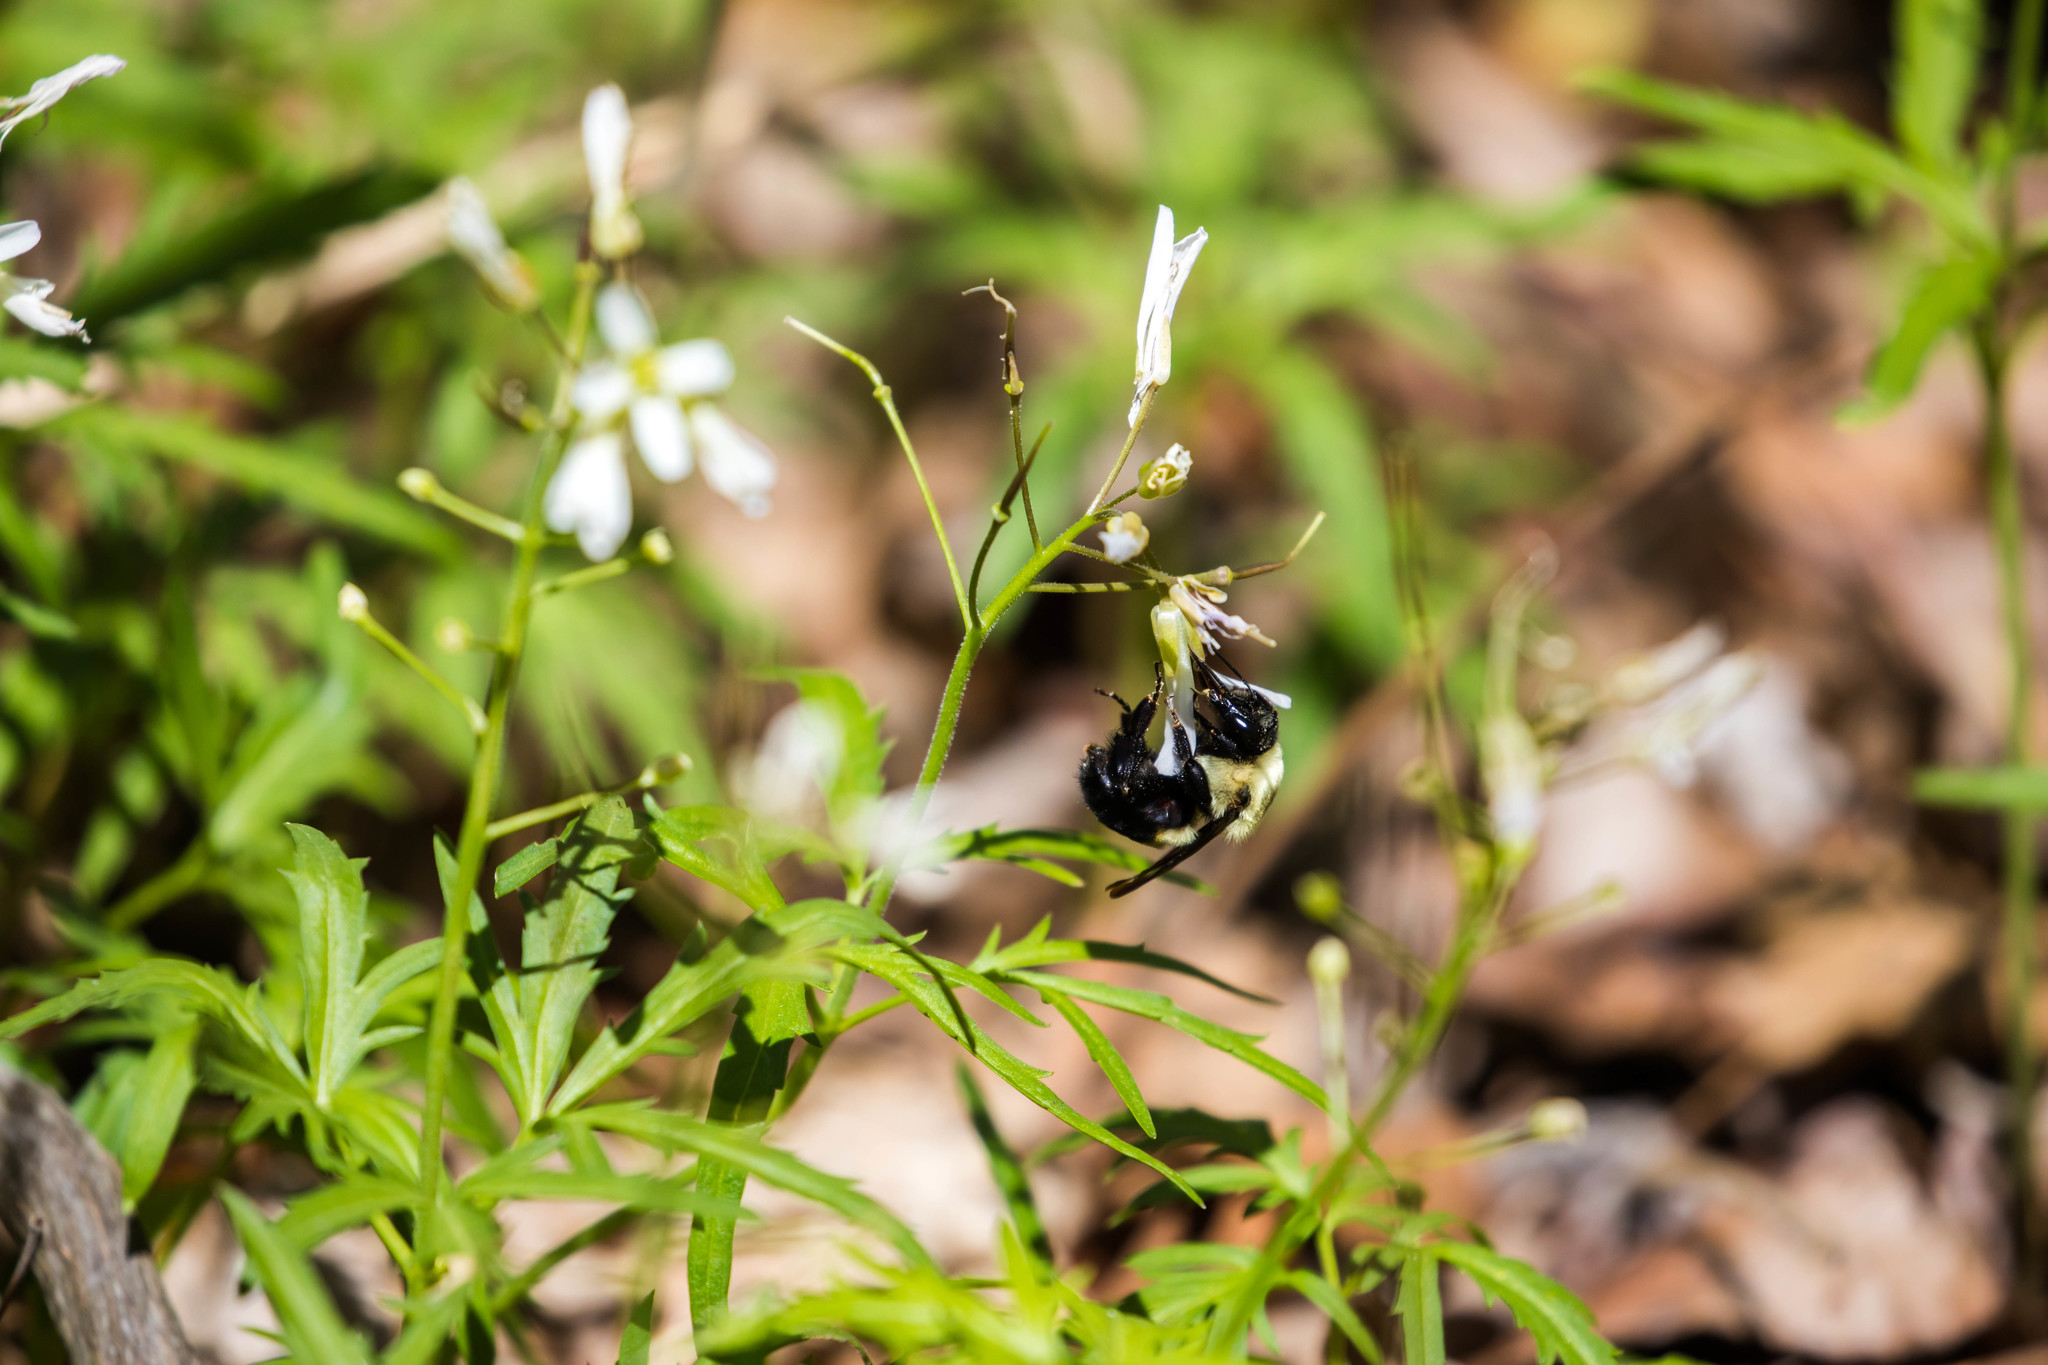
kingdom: Animalia
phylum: Arthropoda
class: Insecta
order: Hymenoptera
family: Apidae
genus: Bombus
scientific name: Bombus griseocollis
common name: Brown-belted bumble bee
